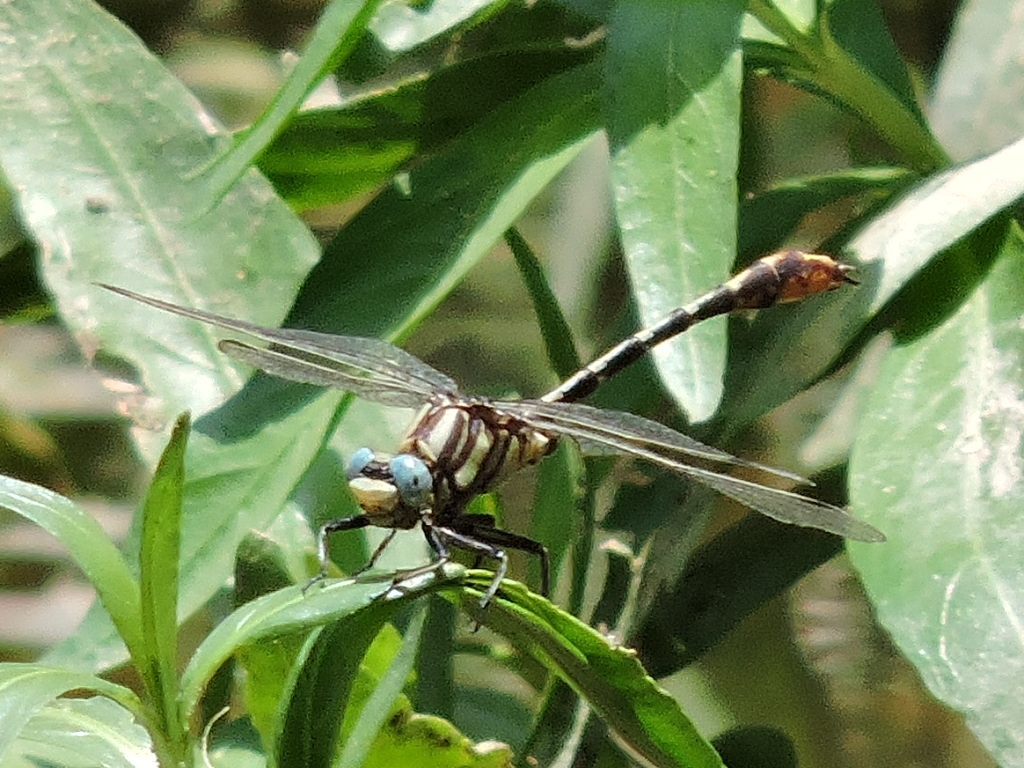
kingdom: Animalia
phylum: Arthropoda
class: Insecta
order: Odonata
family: Gomphidae
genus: Phanogomphus
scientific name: Phanogomphus militaris
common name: Sulphur-tipped clubtail
